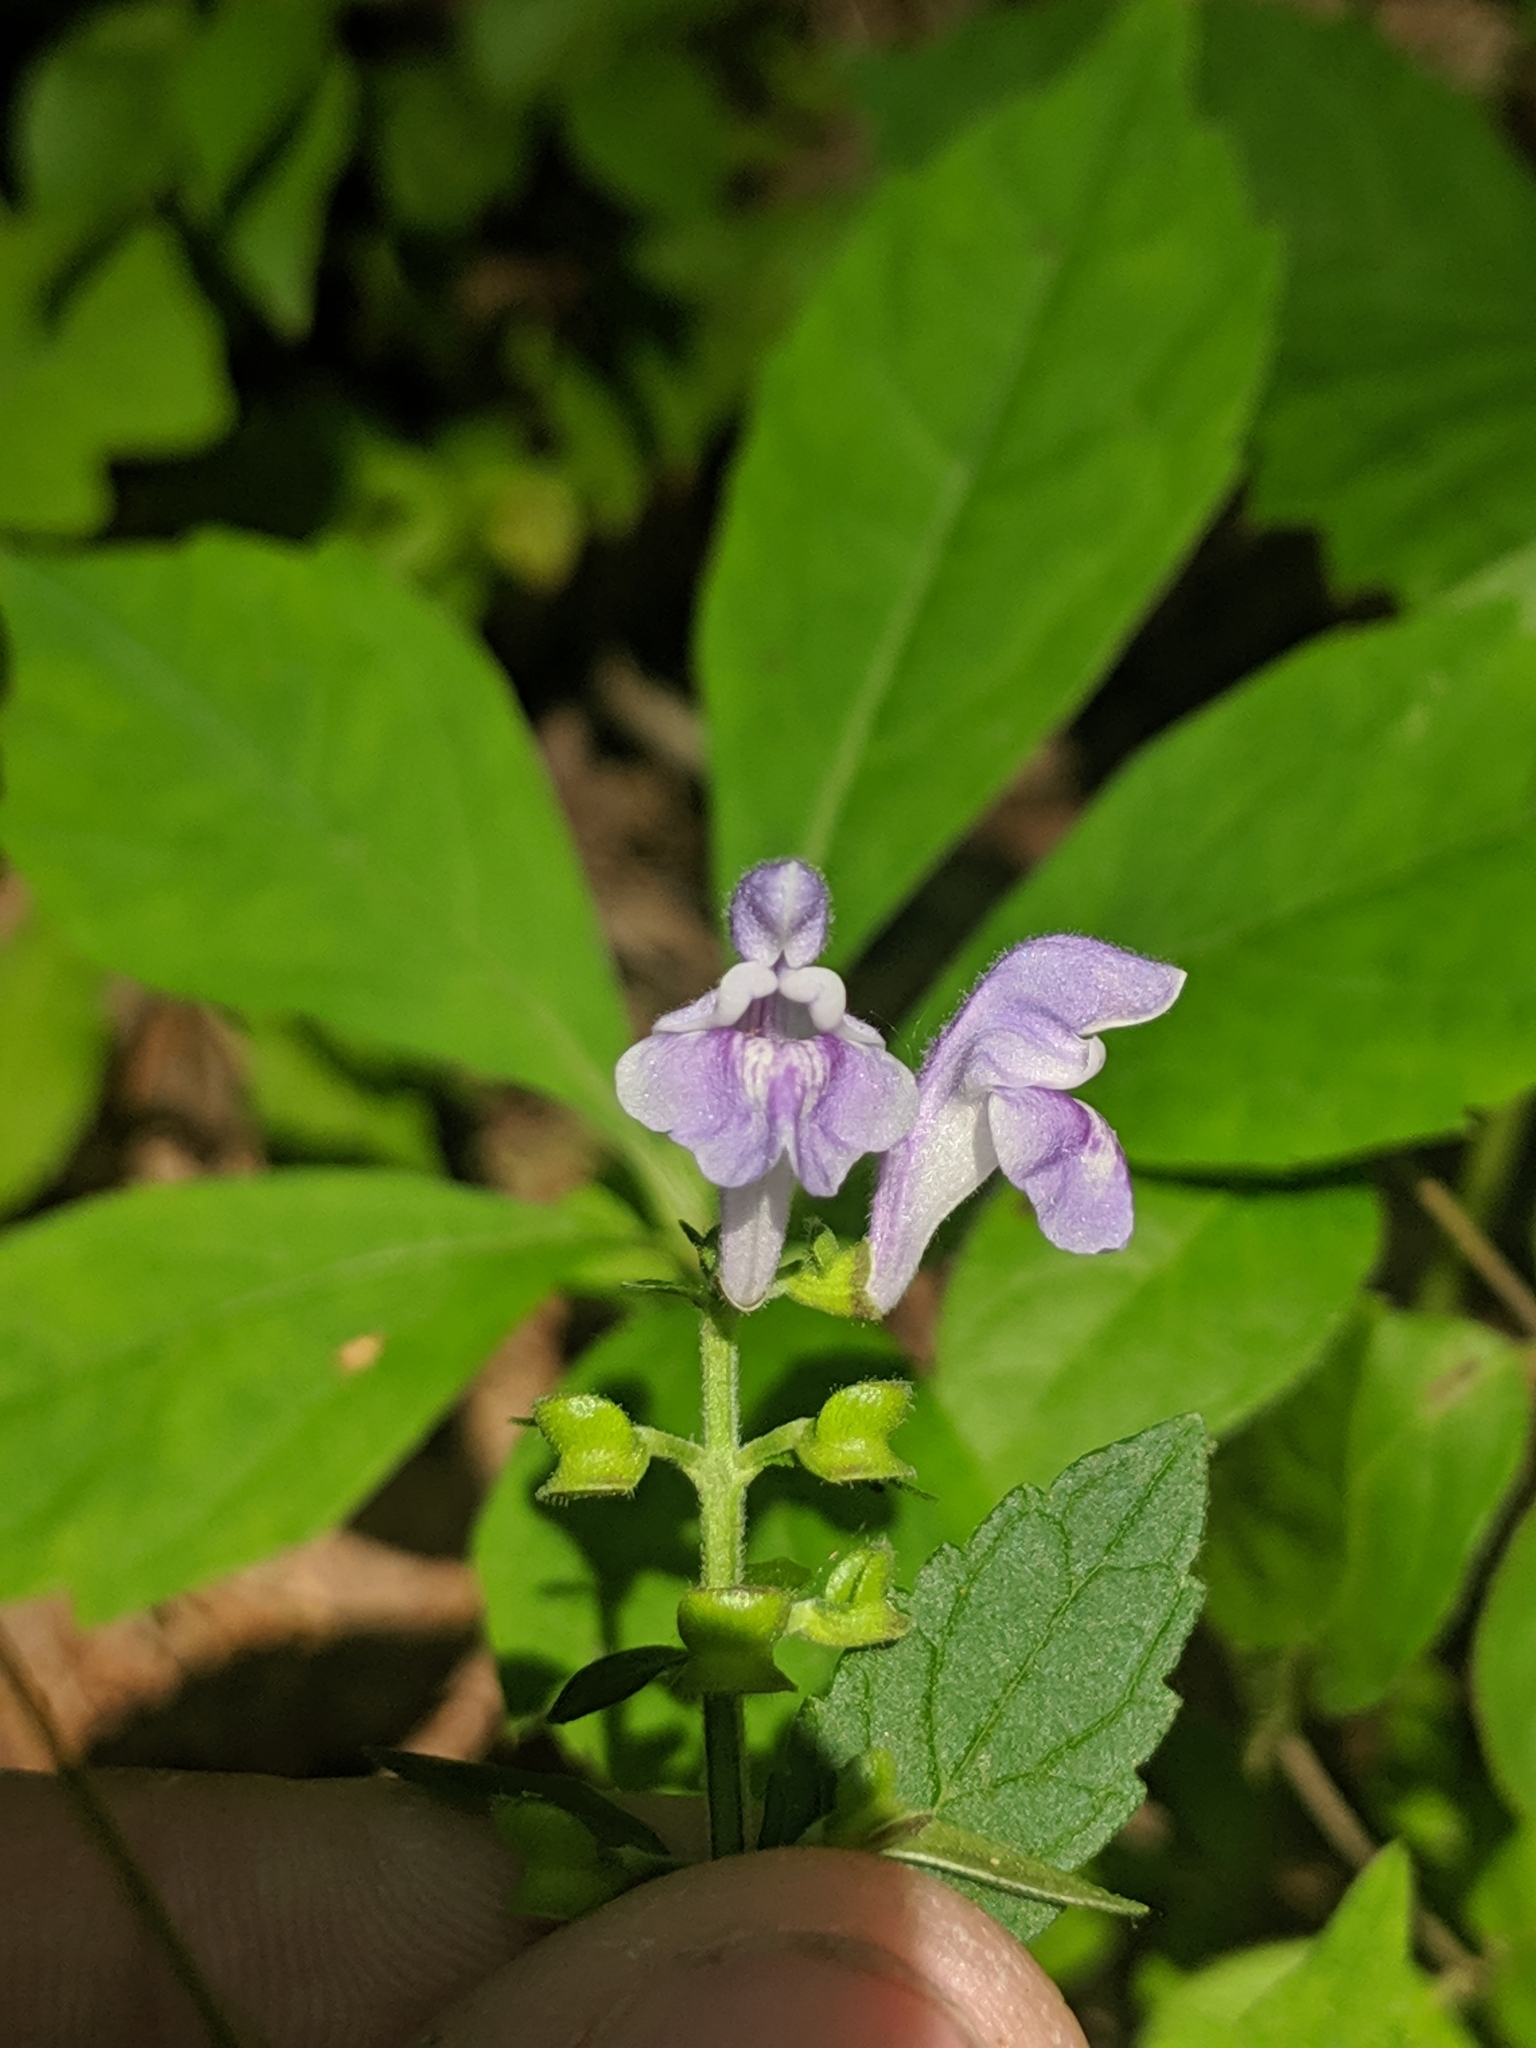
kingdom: Plantae
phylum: Tracheophyta
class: Magnoliopsida
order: Lamiales
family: Lamiaceae
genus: Scutellaria
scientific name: Scutellaria elliptica
